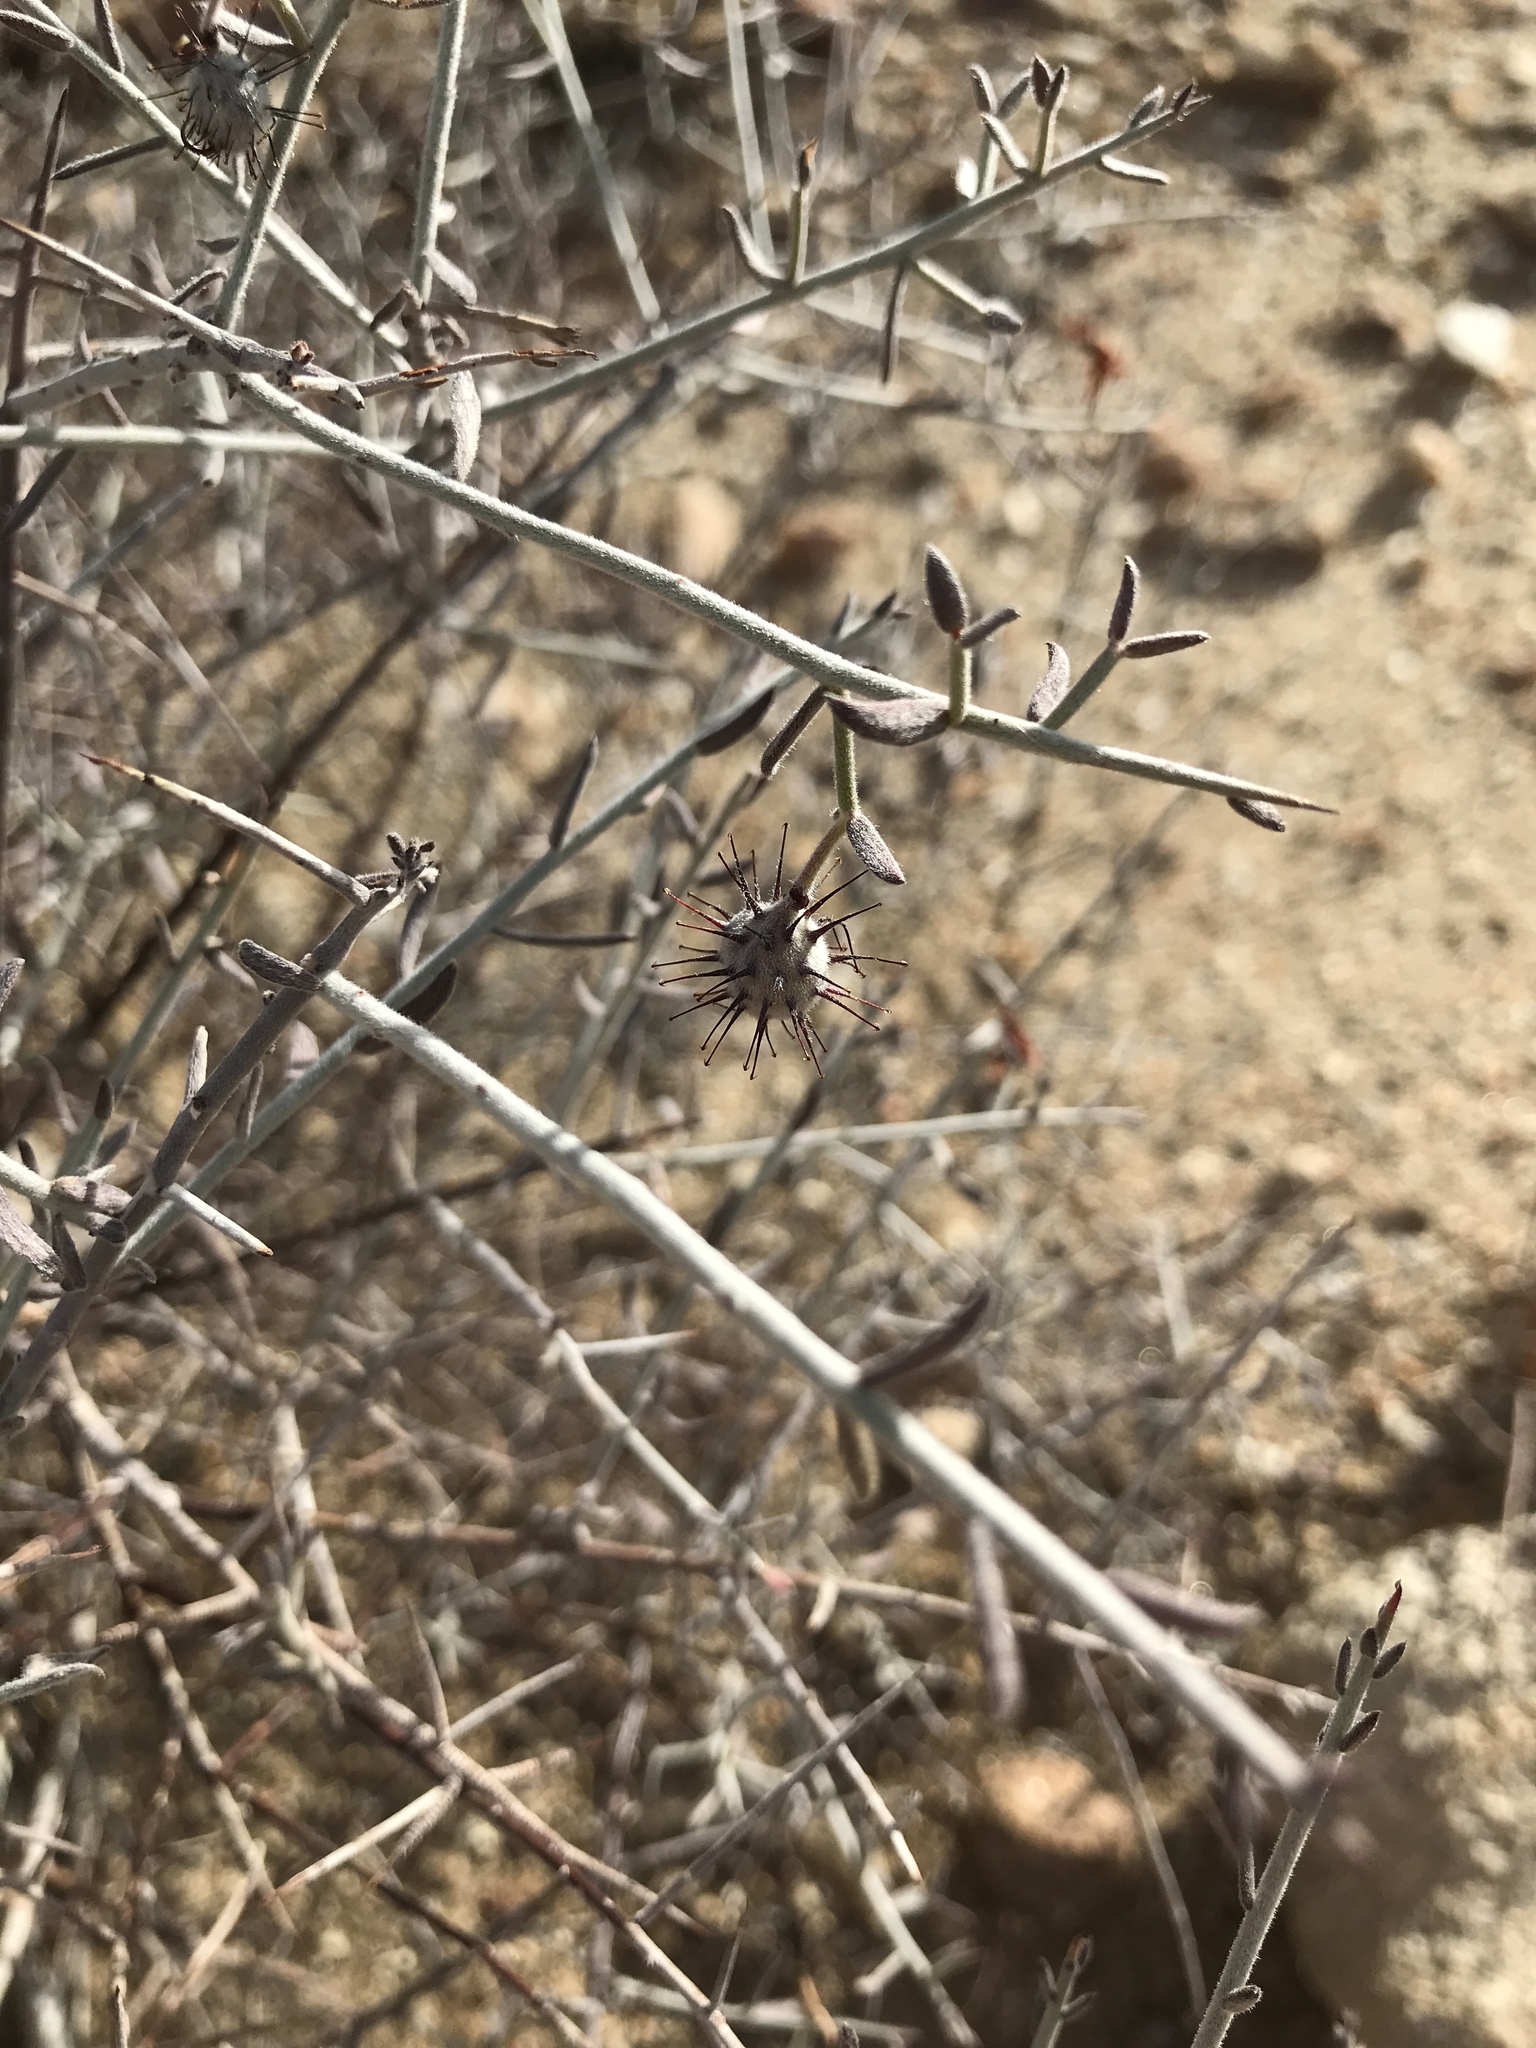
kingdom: Plantae
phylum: Tracheophyta
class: Magnoliopsida
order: Zygophyllales
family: Krameriaceae
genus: Krameria
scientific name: Krameria bicolor
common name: White ratany
